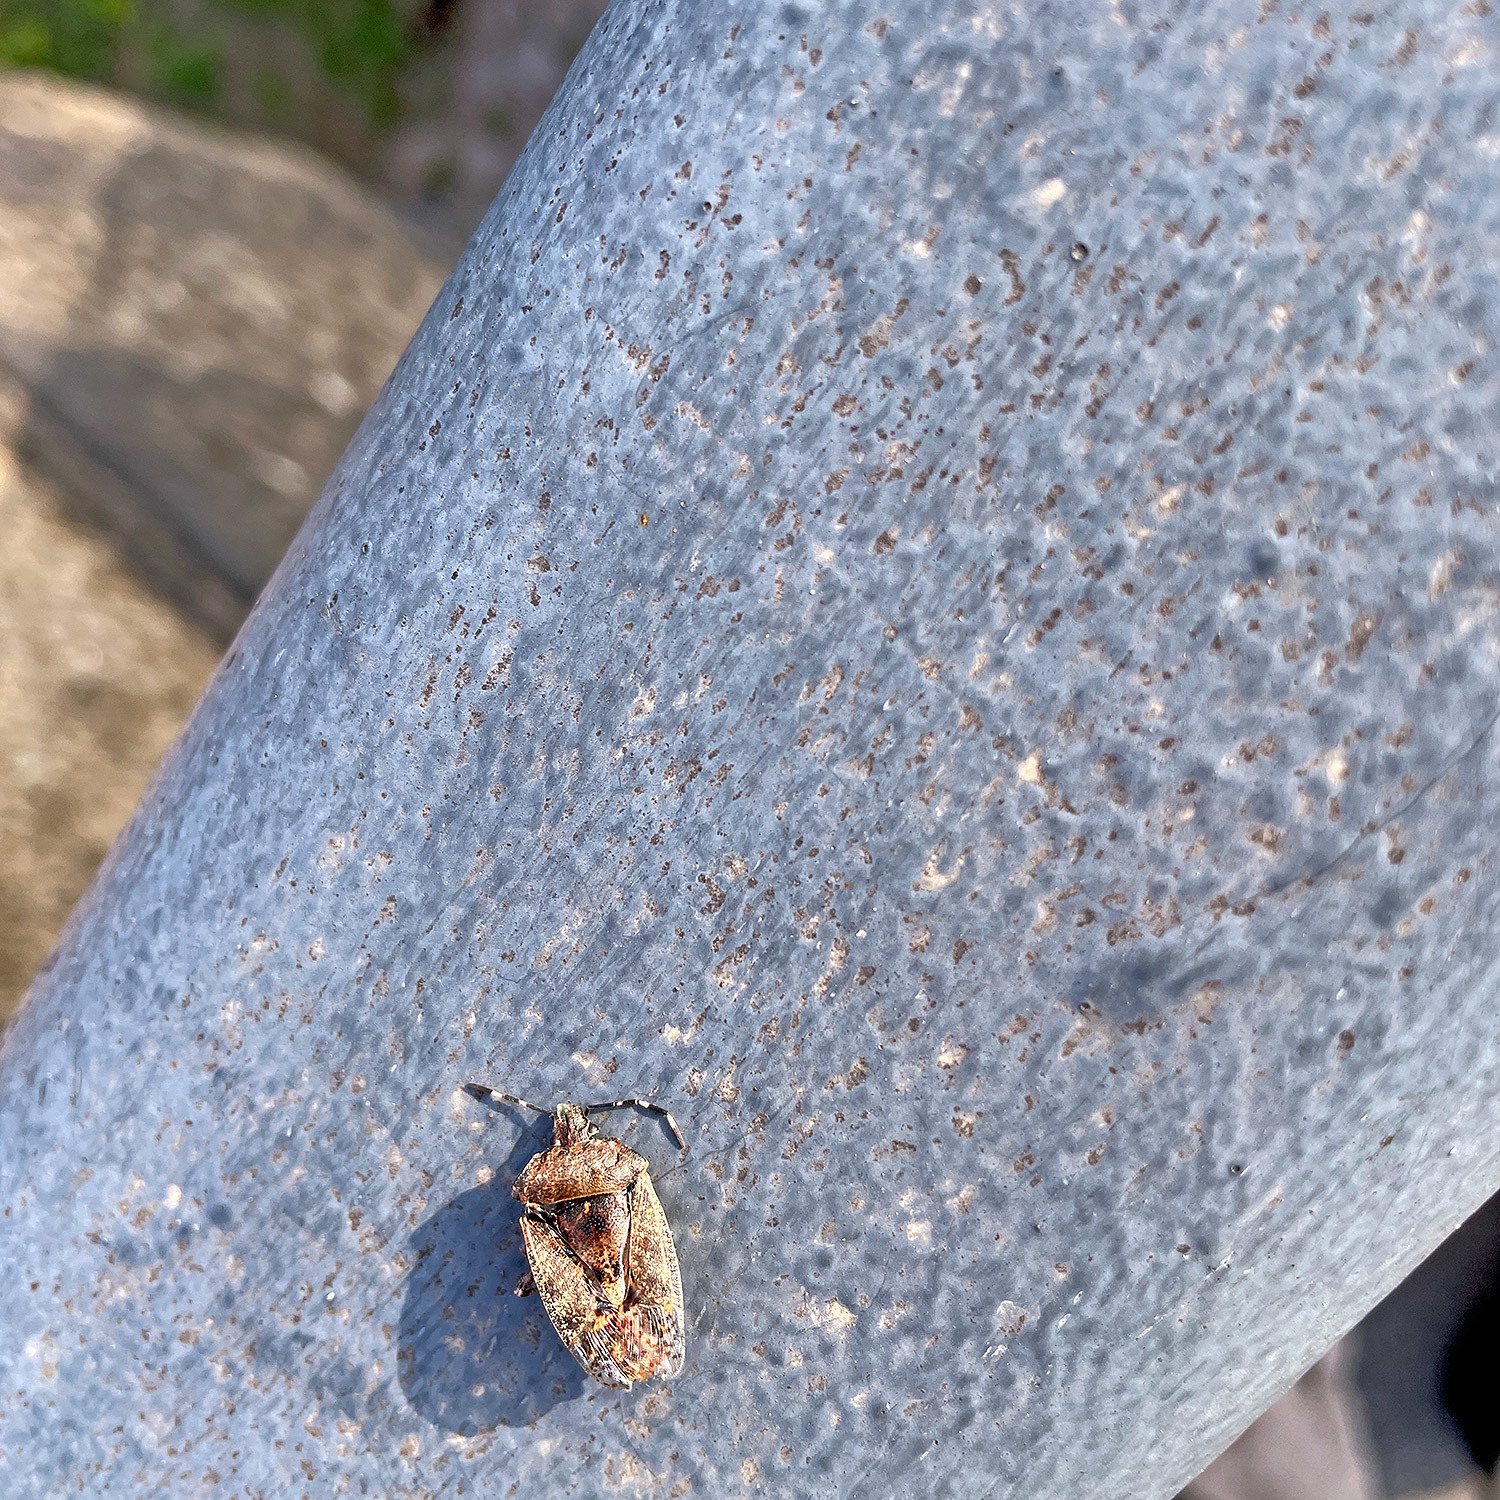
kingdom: Animalia
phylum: Arthropoda
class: Insecta
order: Hemiptera
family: Pentatomidae
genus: Rhaphigaster
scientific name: Rhaphigaster nebulosa
